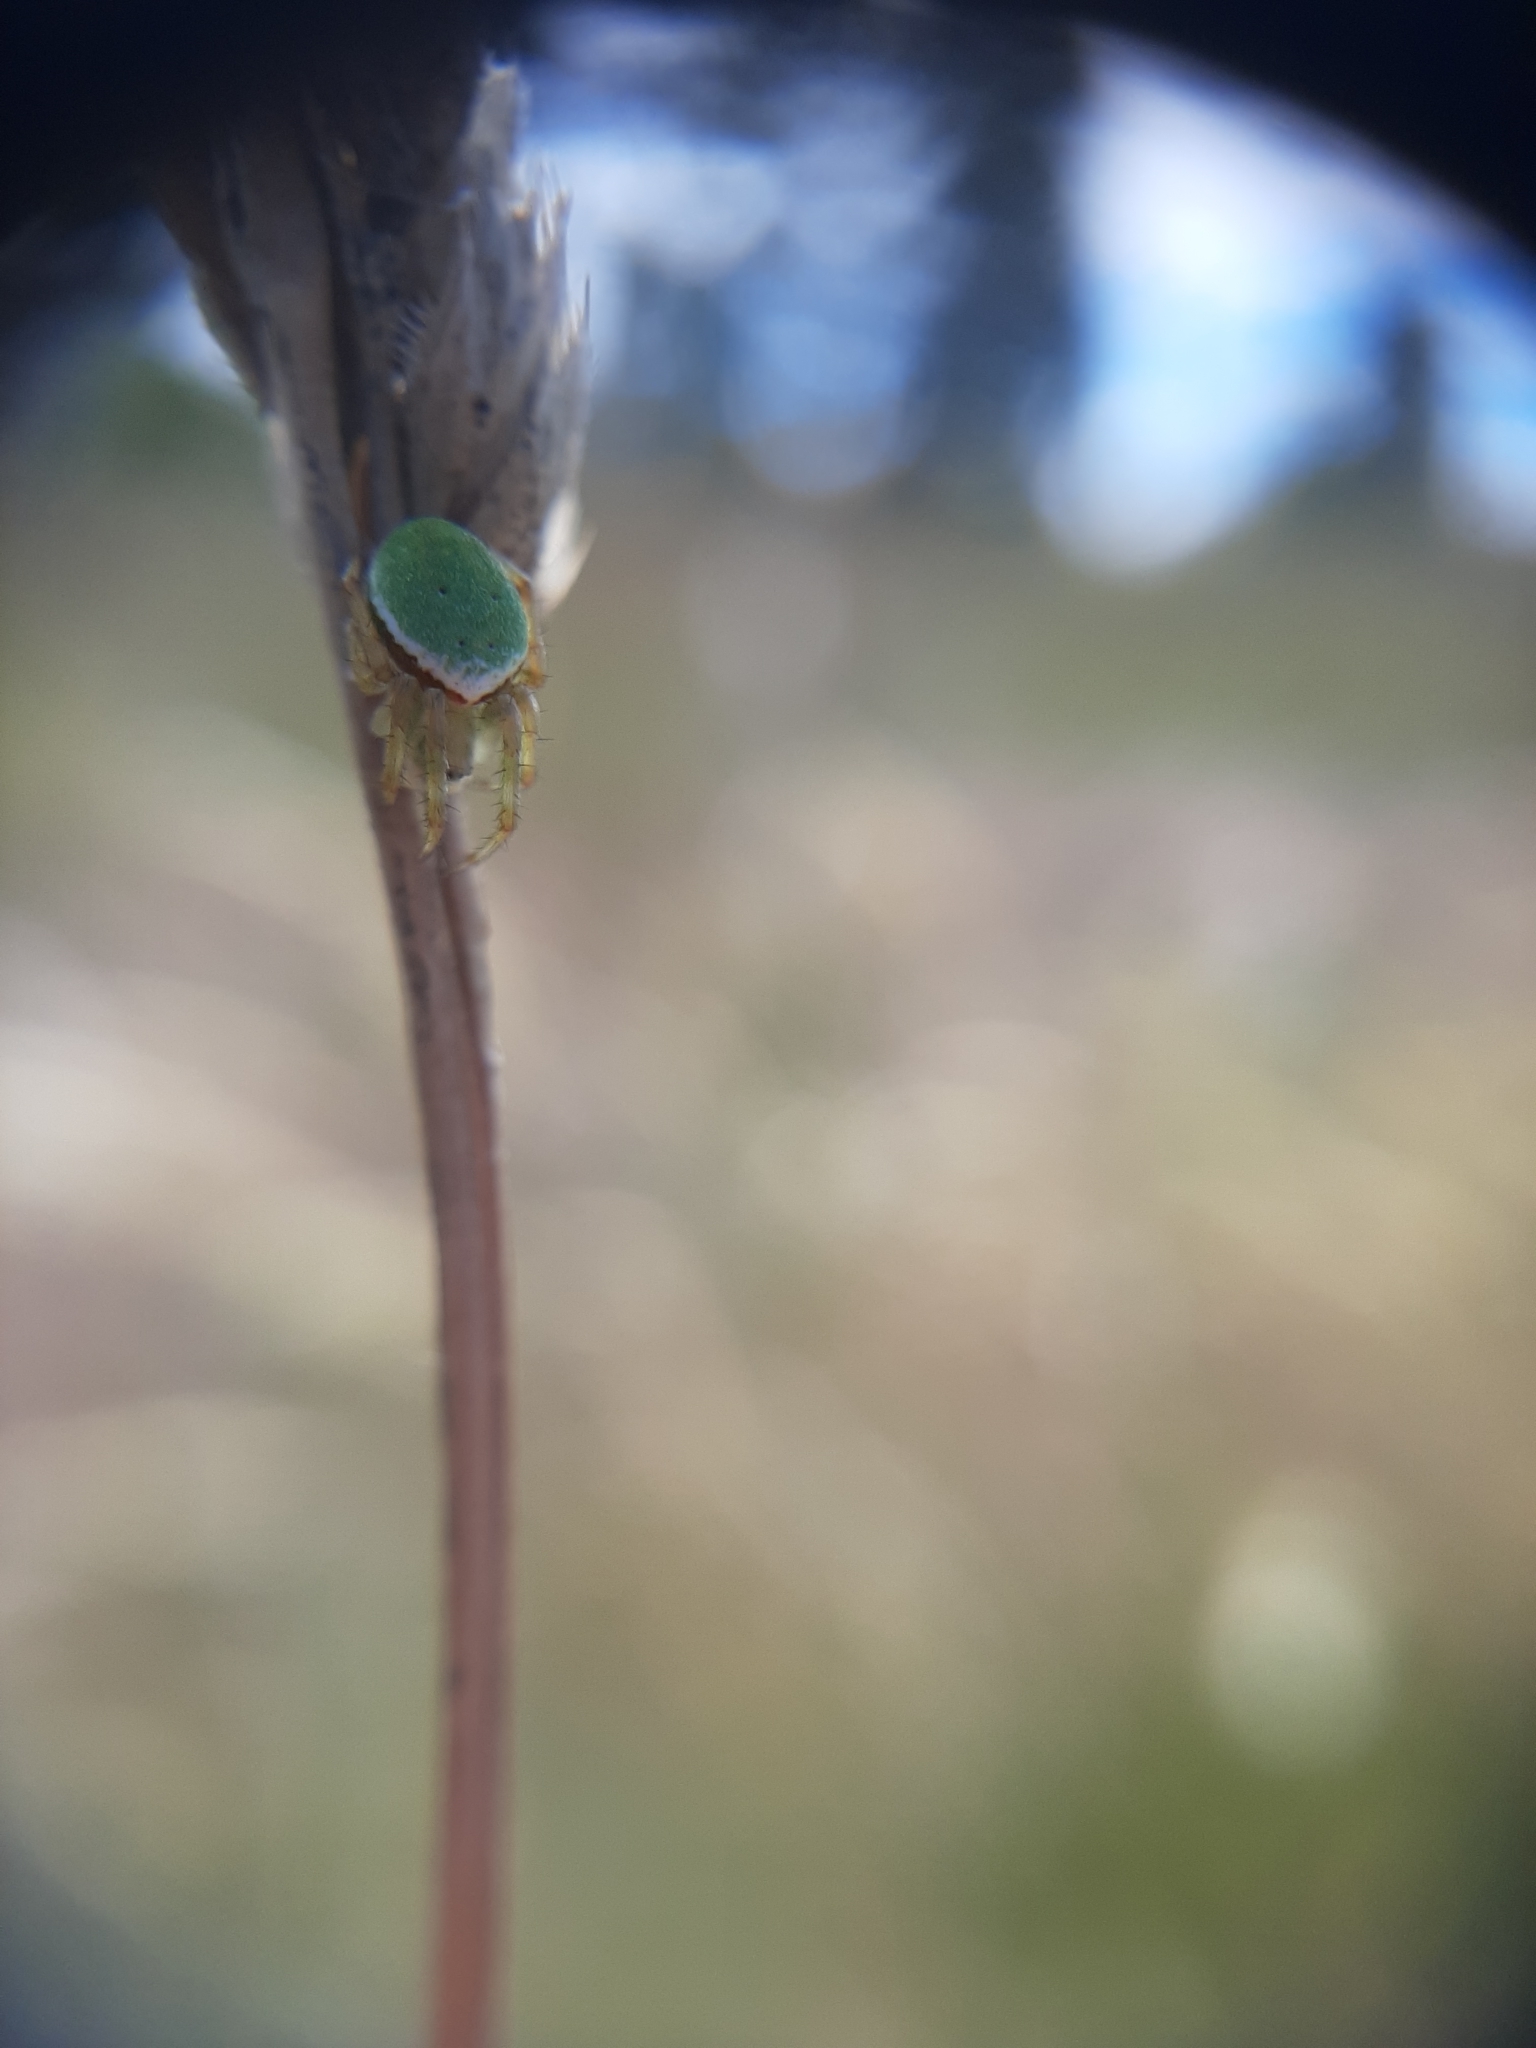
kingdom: Animalia
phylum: Arthropoda
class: Arachnida
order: Araneae
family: Araneidae
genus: Colaranea
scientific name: Colaranea viriditas
